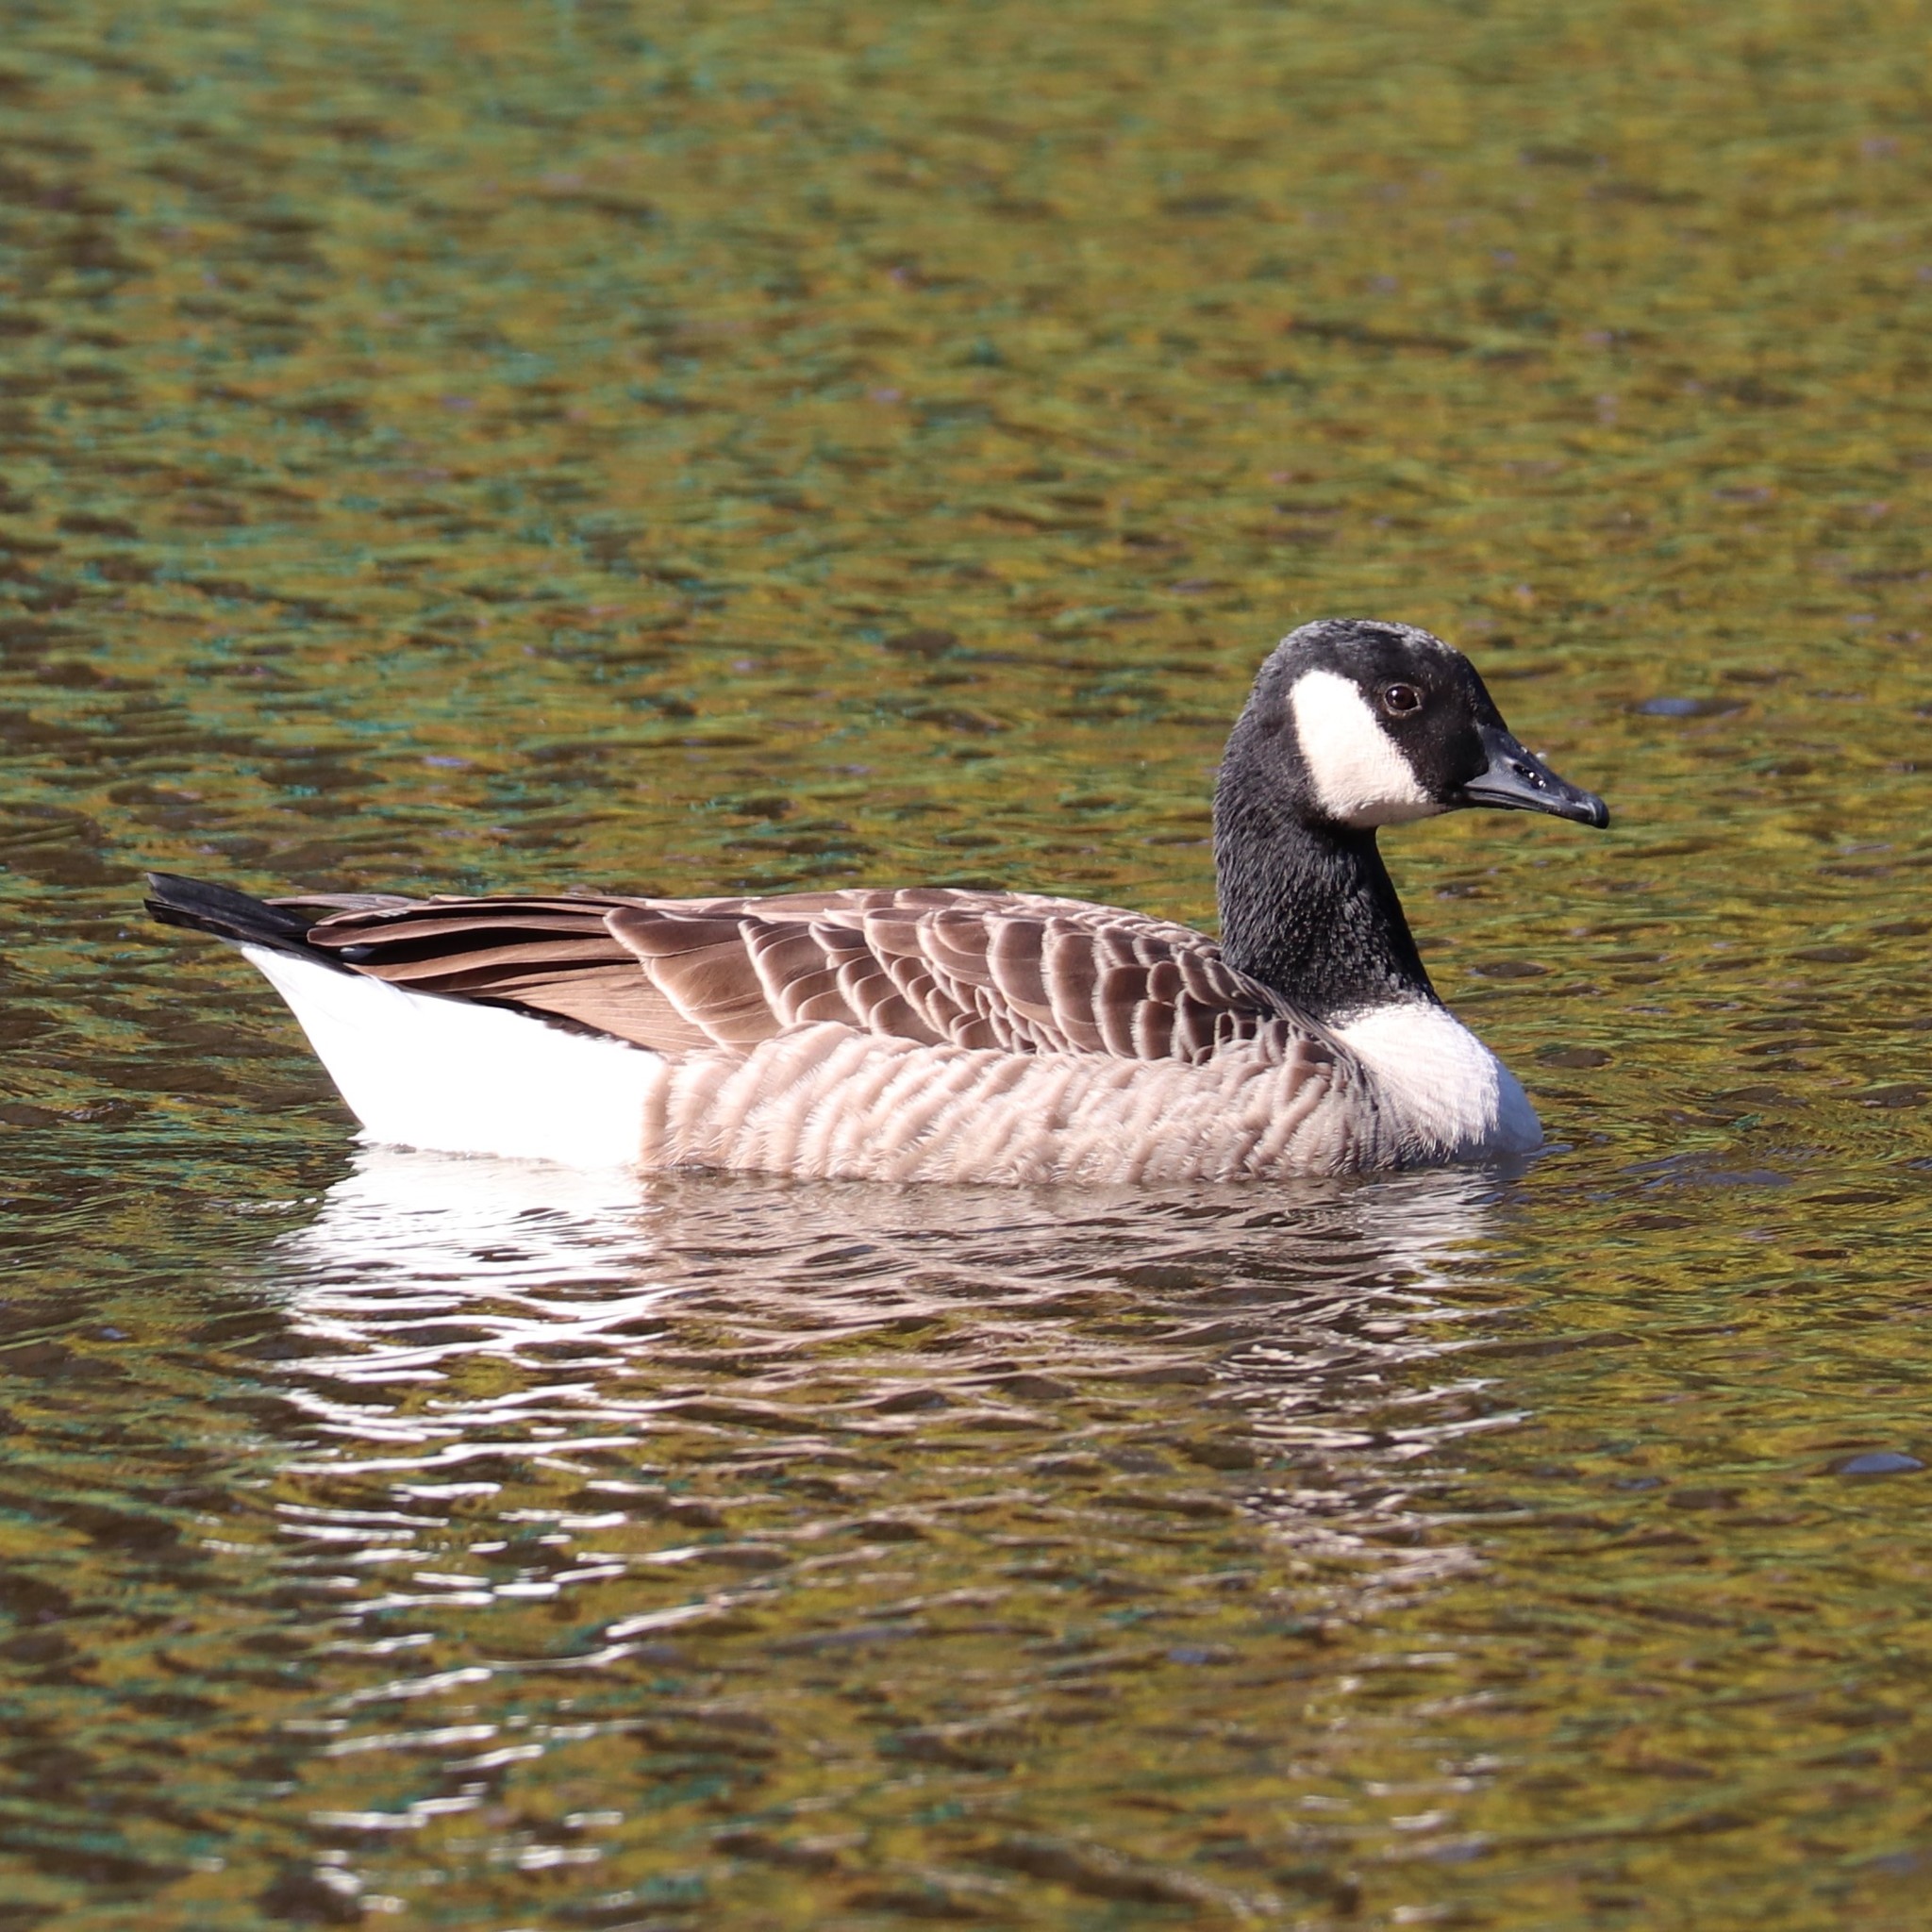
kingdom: Animalia
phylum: Chordata
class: Aves
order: Anseriformes
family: Anatidae
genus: Branta
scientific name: Branta canadensis
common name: Canada goose
